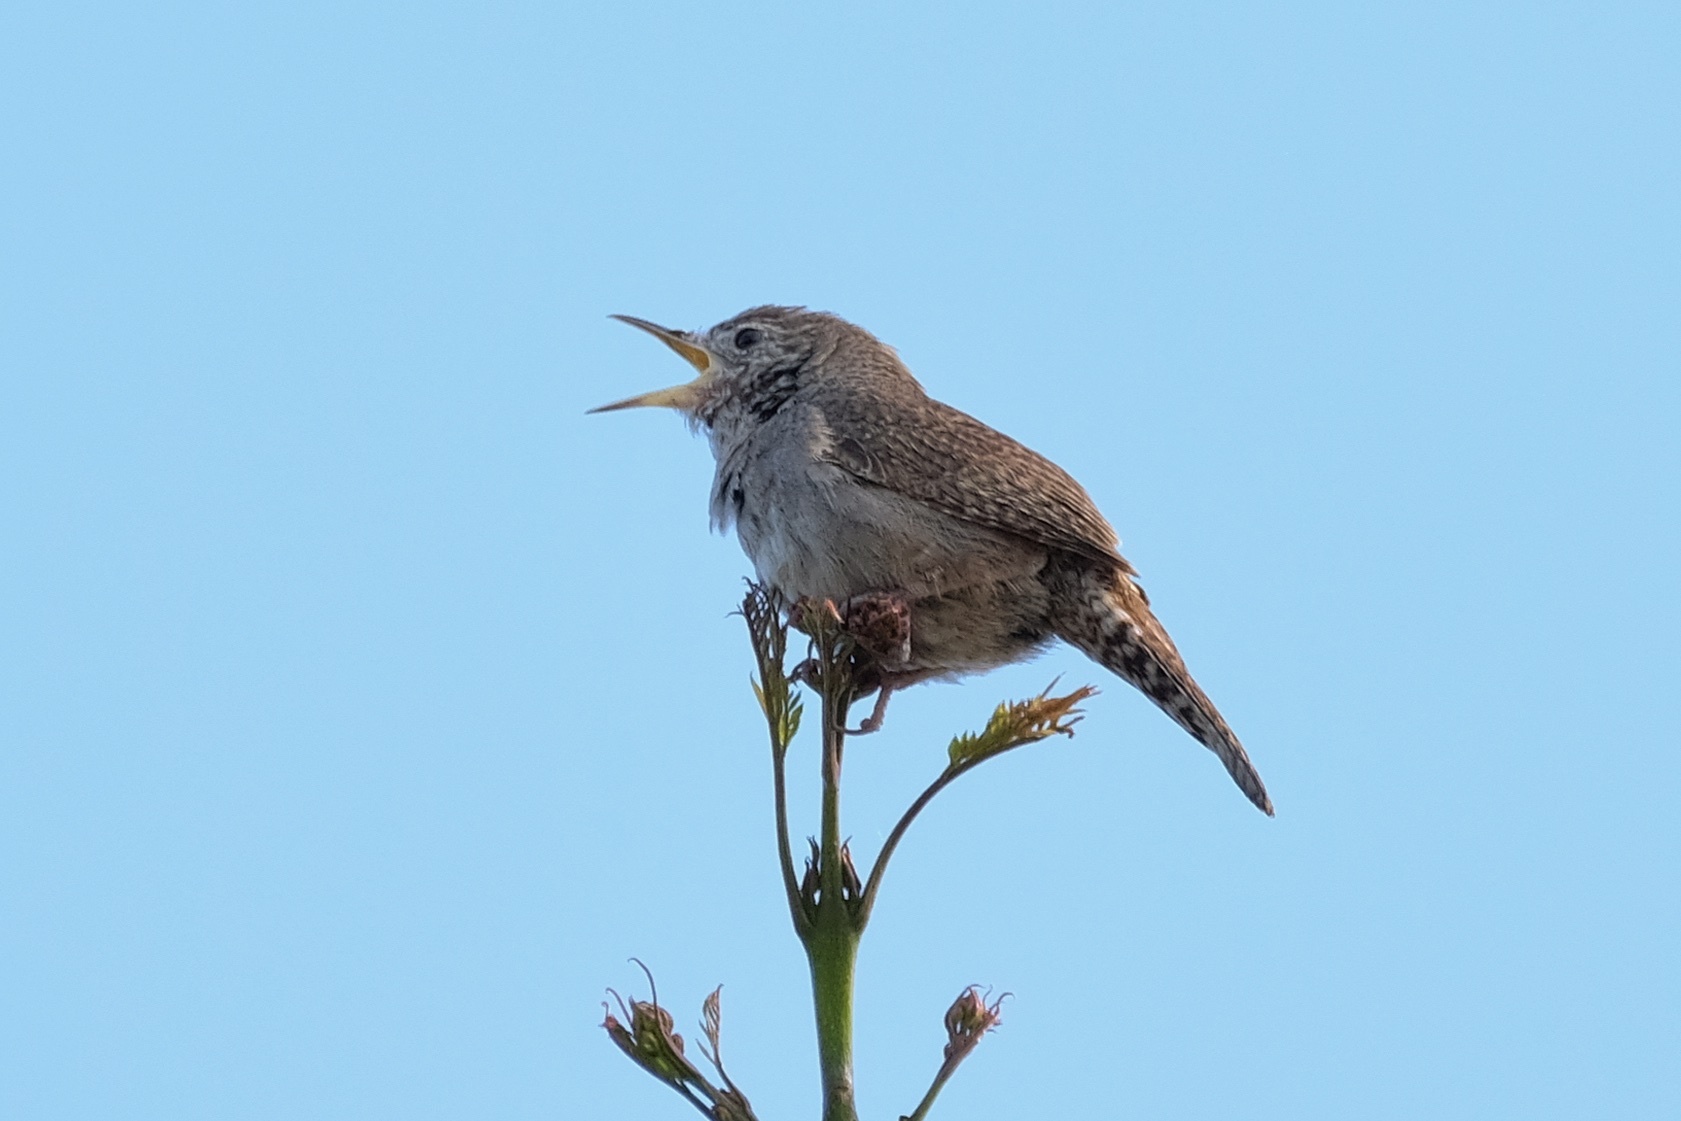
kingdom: Animalia
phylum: Chordata
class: Aves
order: Passeriformes
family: Troglodytidae
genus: Troglodytes
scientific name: Troglodytes aedon
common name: House wren
